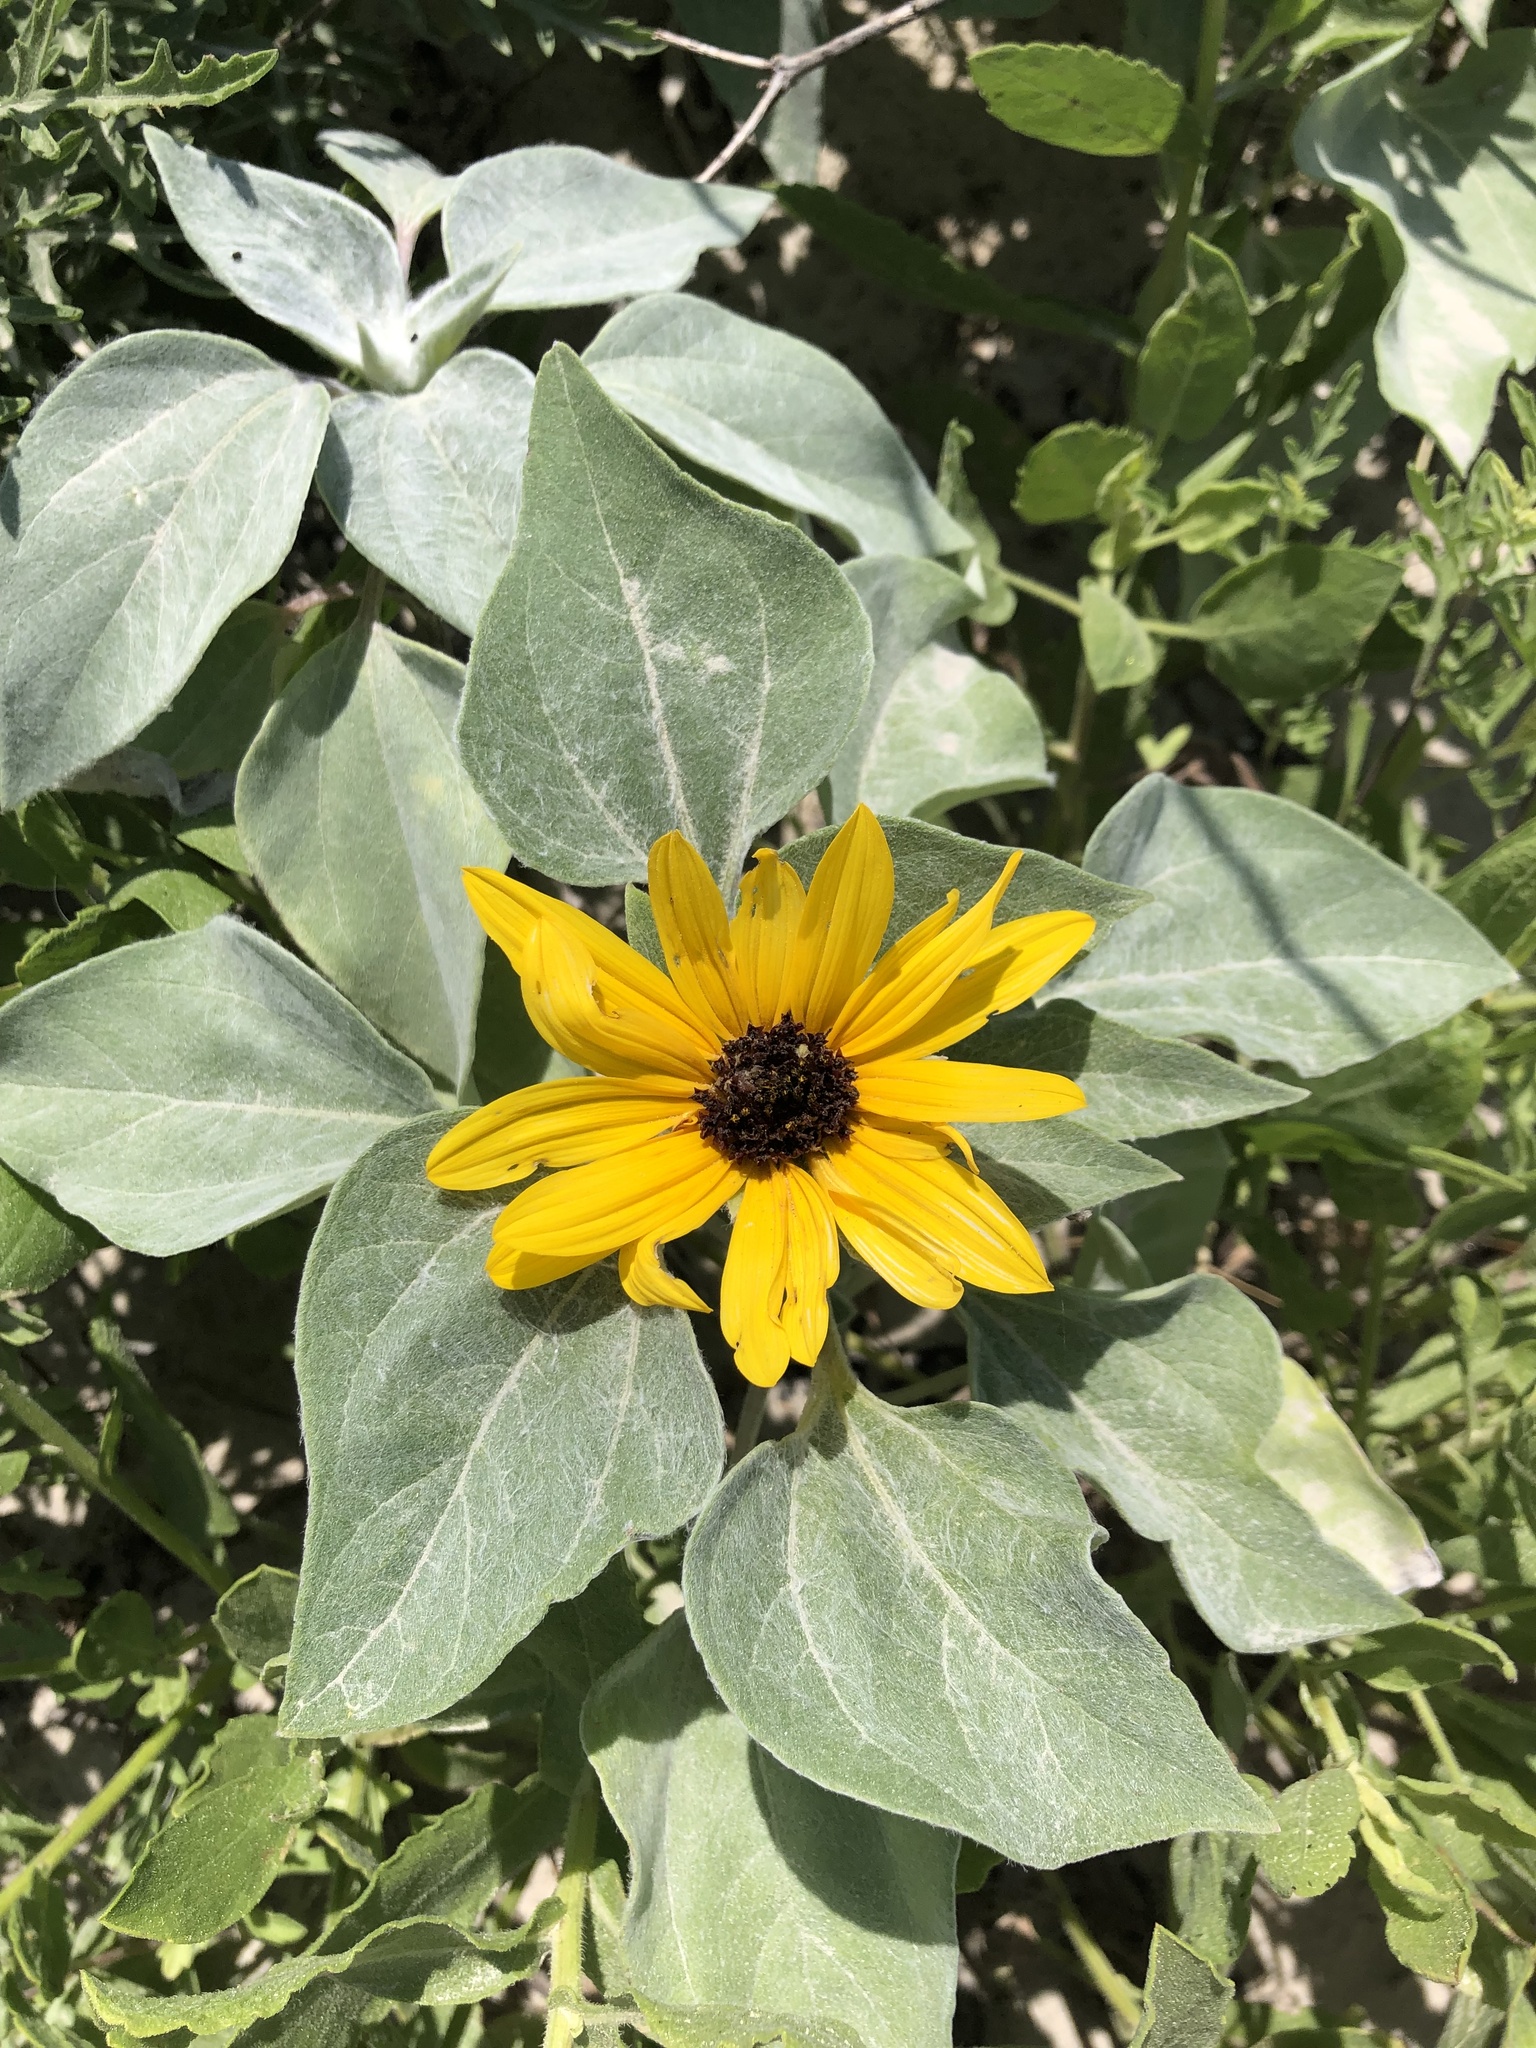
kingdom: Plantae
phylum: Tracheophyta
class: Magnoliopsida
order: Asterales
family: Asteraceae
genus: Helianthus
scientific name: Helianthus argophyllus
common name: Silverleaf sunflower
